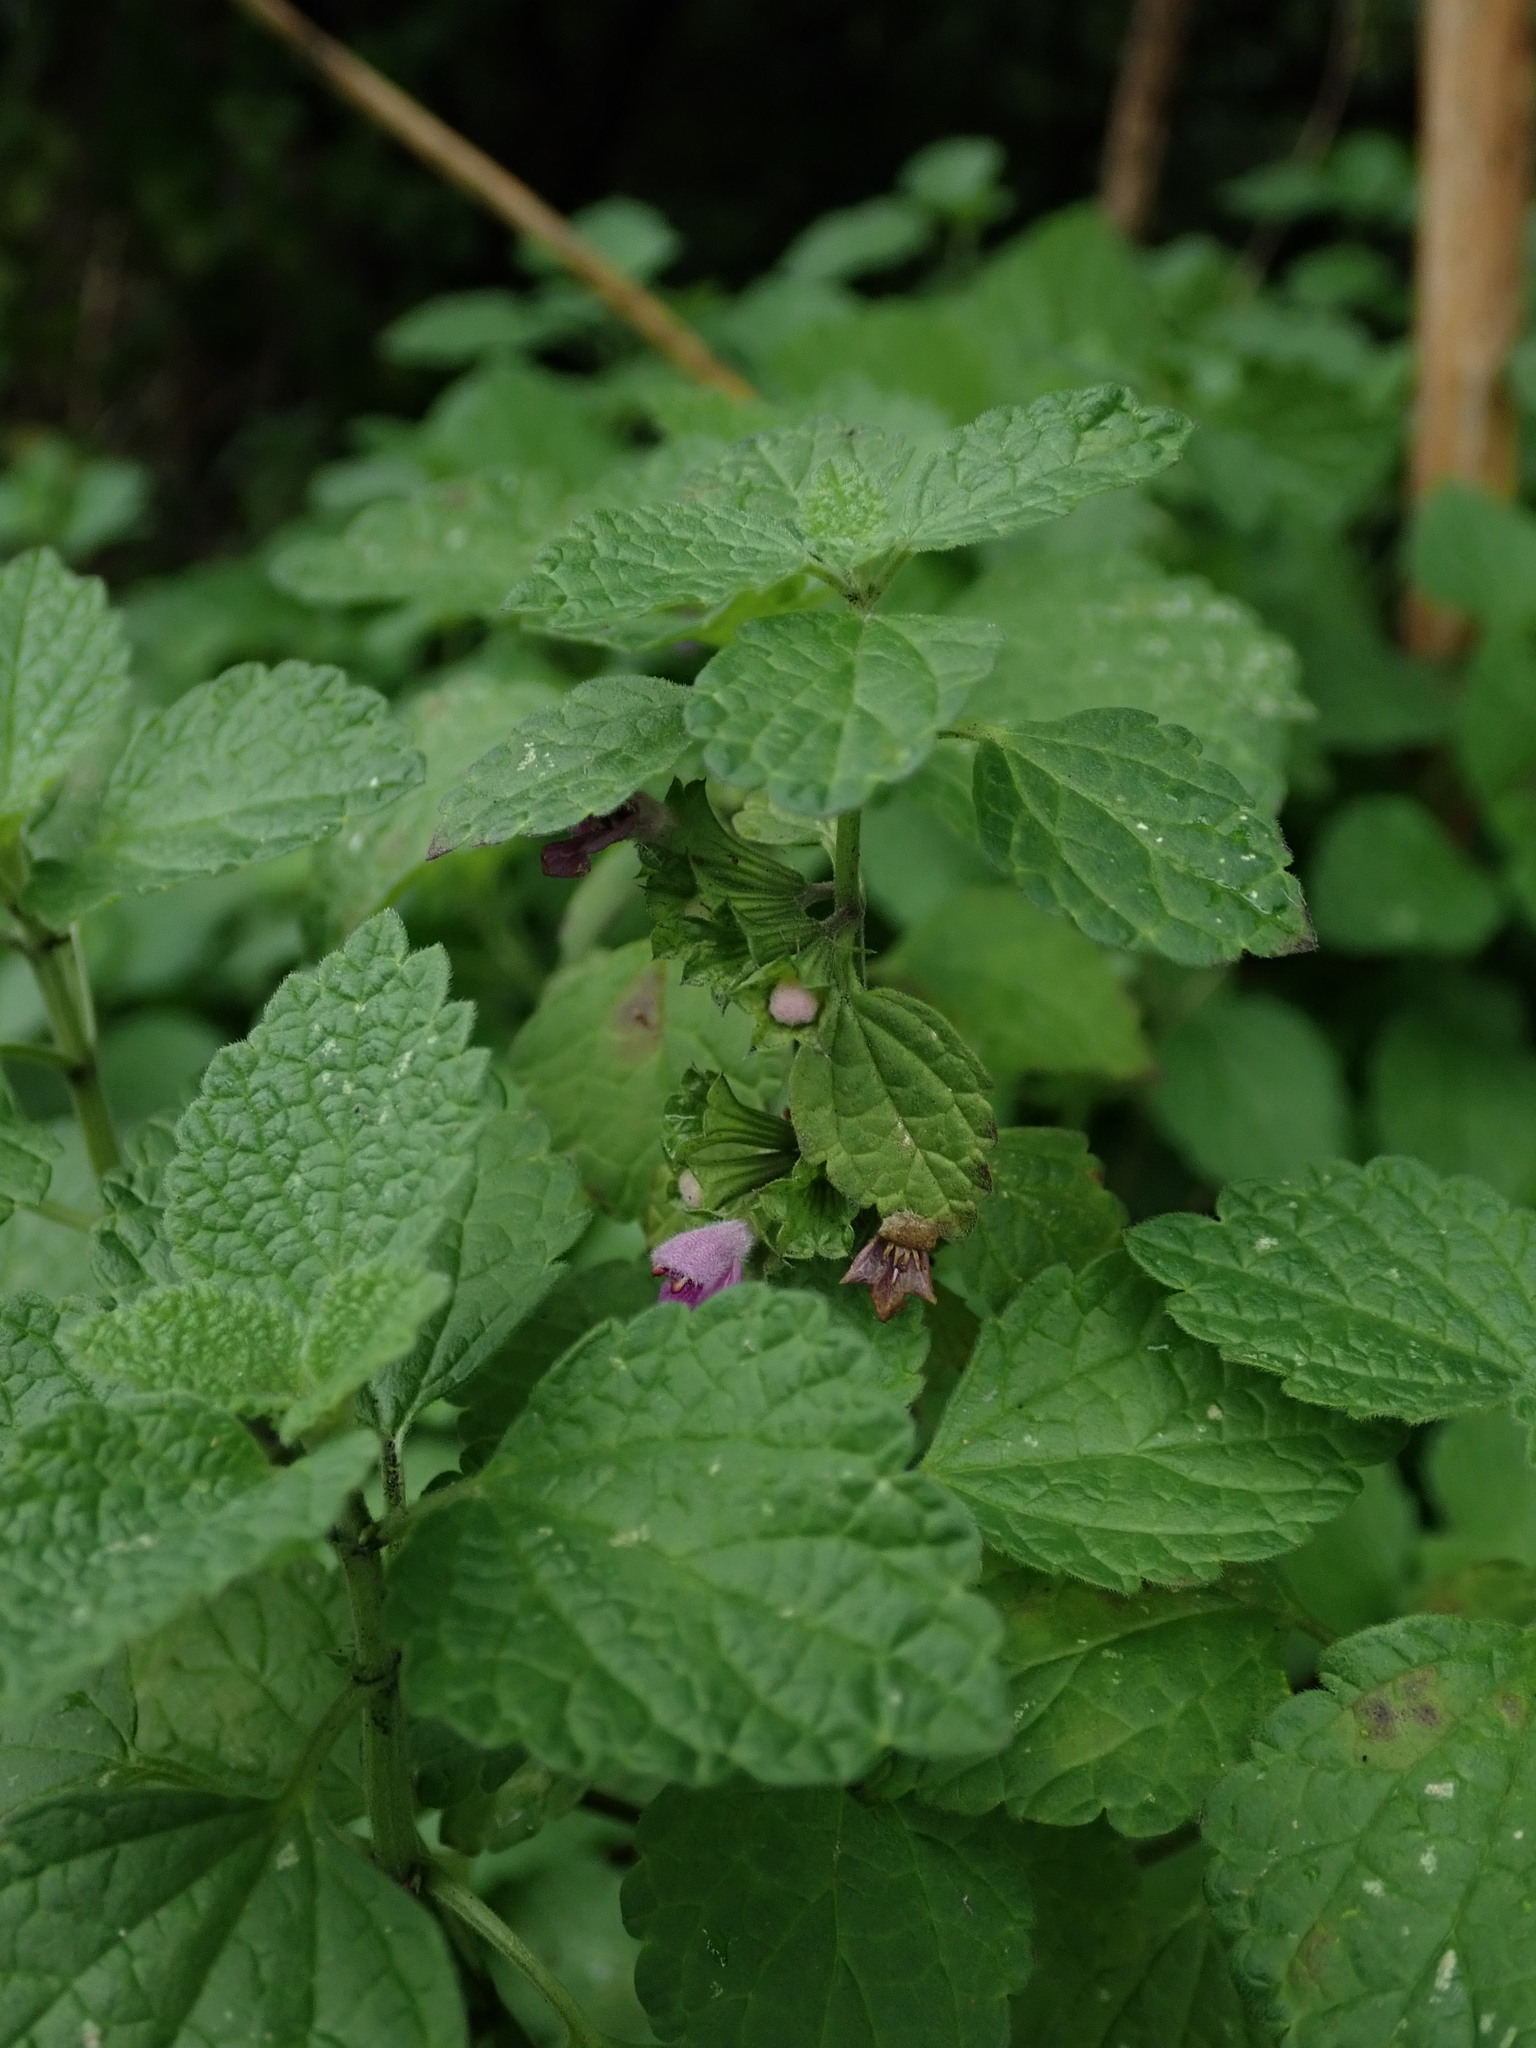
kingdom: Plantae
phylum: Tracheophyta
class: Magnoliopsida
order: Lamiales
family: Lamiaceae
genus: Ballota
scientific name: Ballota nigra
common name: Black horehound
